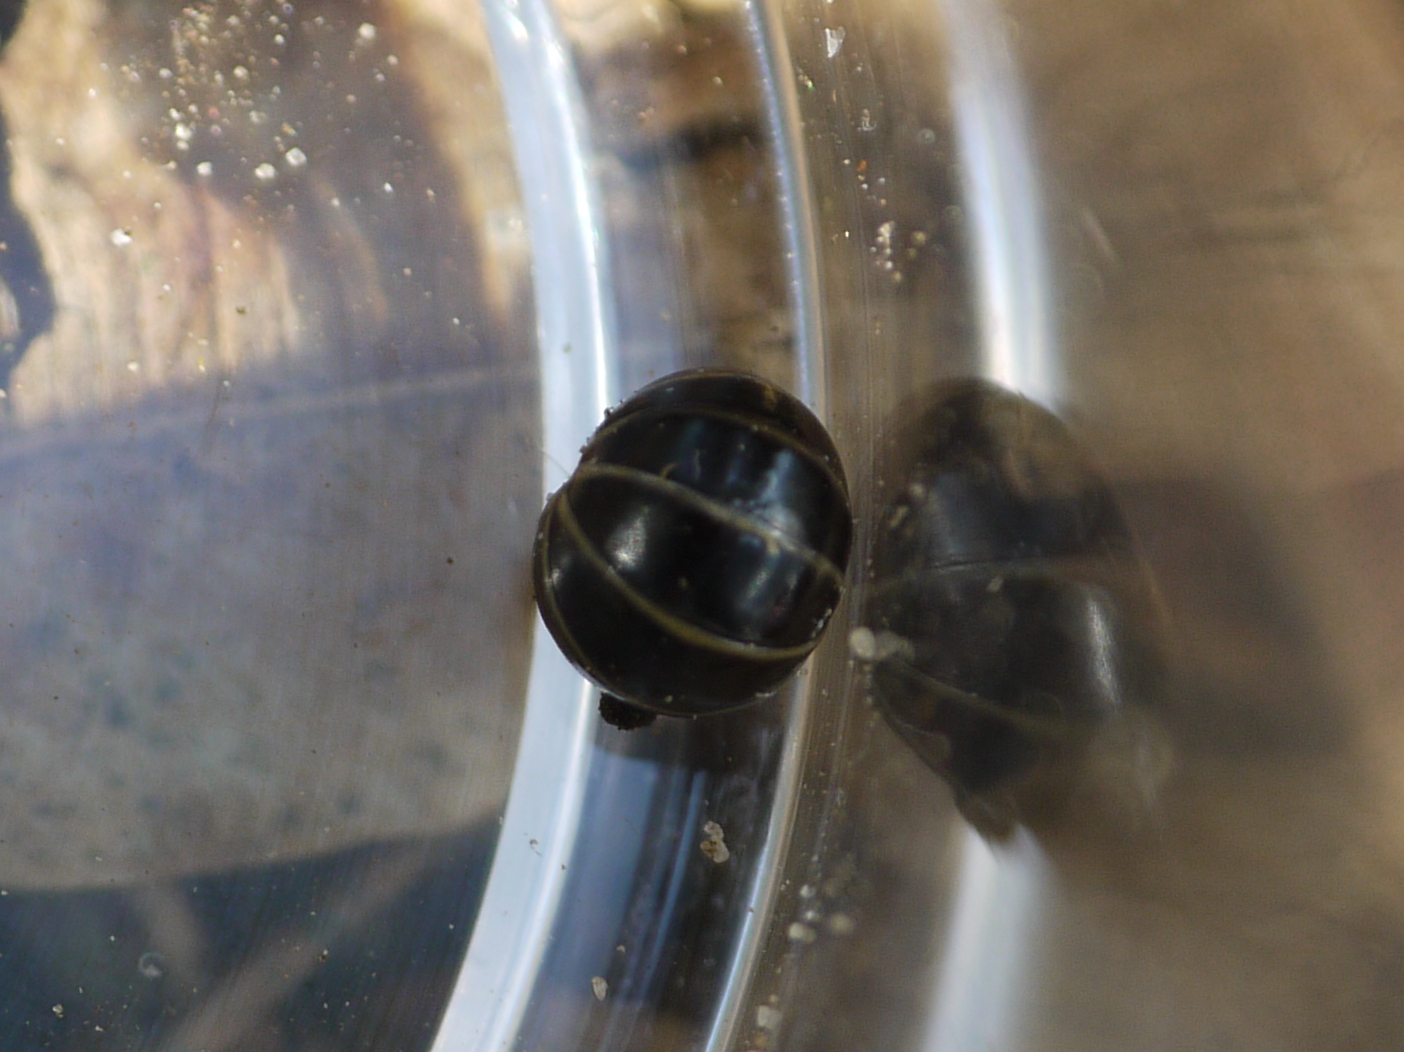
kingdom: Animalia
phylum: Arthropoda
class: Diplopoda
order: Glomerida
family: Glomeridae
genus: Glomeris
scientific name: Glomeris marginata
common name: Bordered pill millipede
